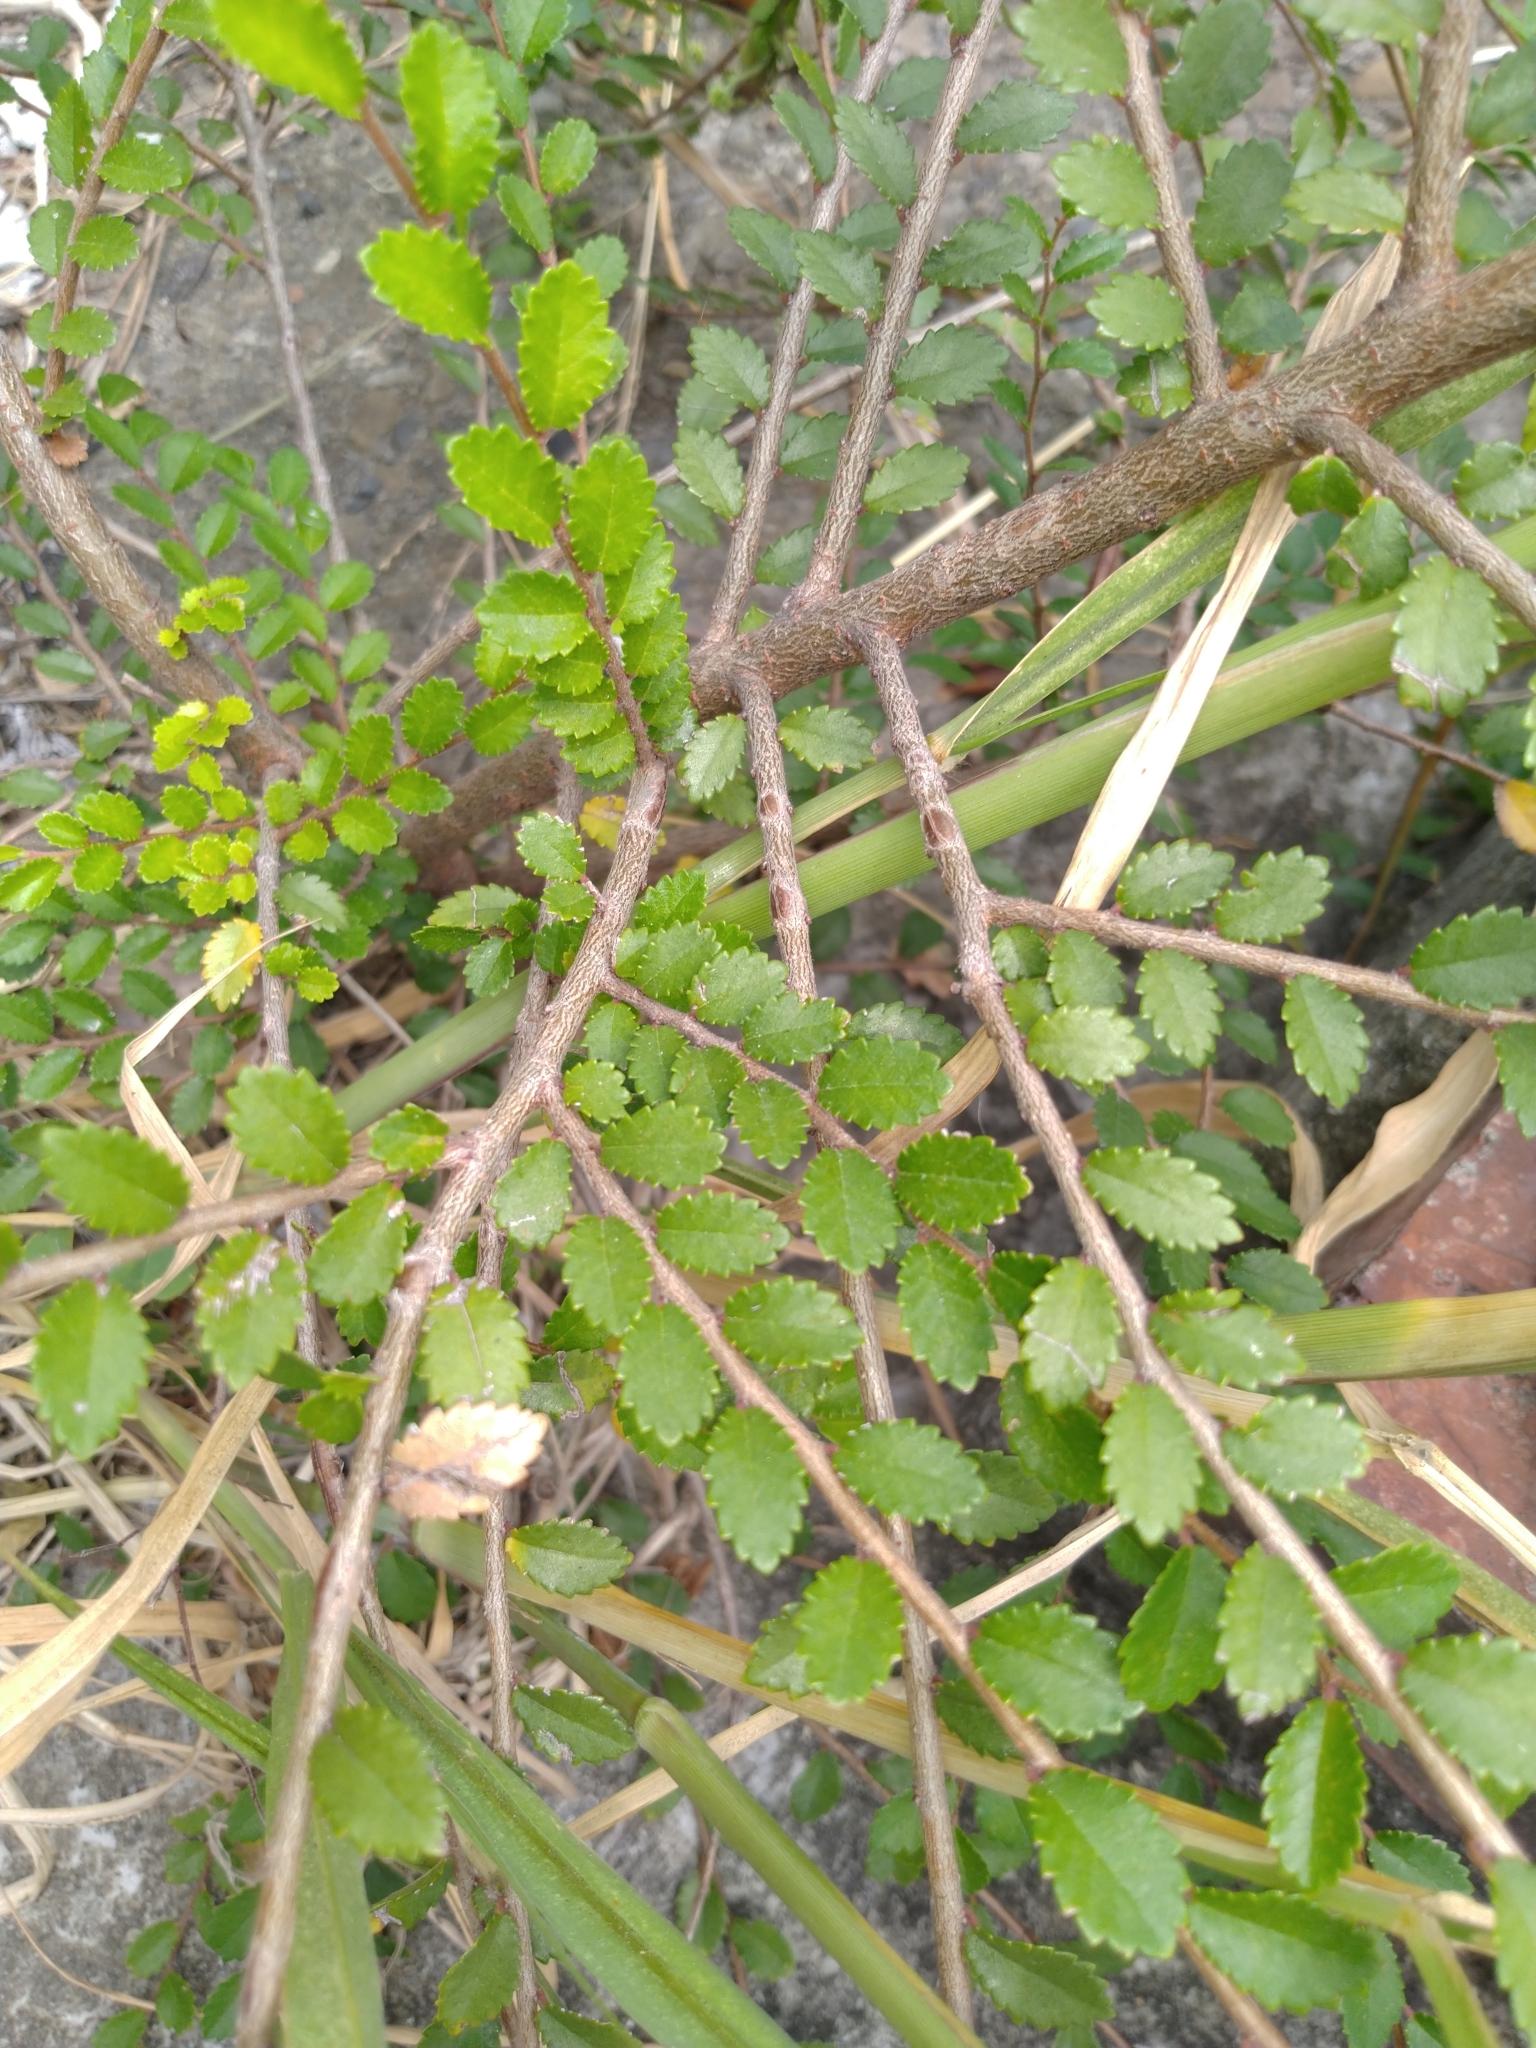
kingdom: Plantae
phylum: Tracheophyta
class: Magnoliopsida
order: Rosales
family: Ulmaceae
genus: Ulmus
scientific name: Ulmus parvifolia
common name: Chinese elm
